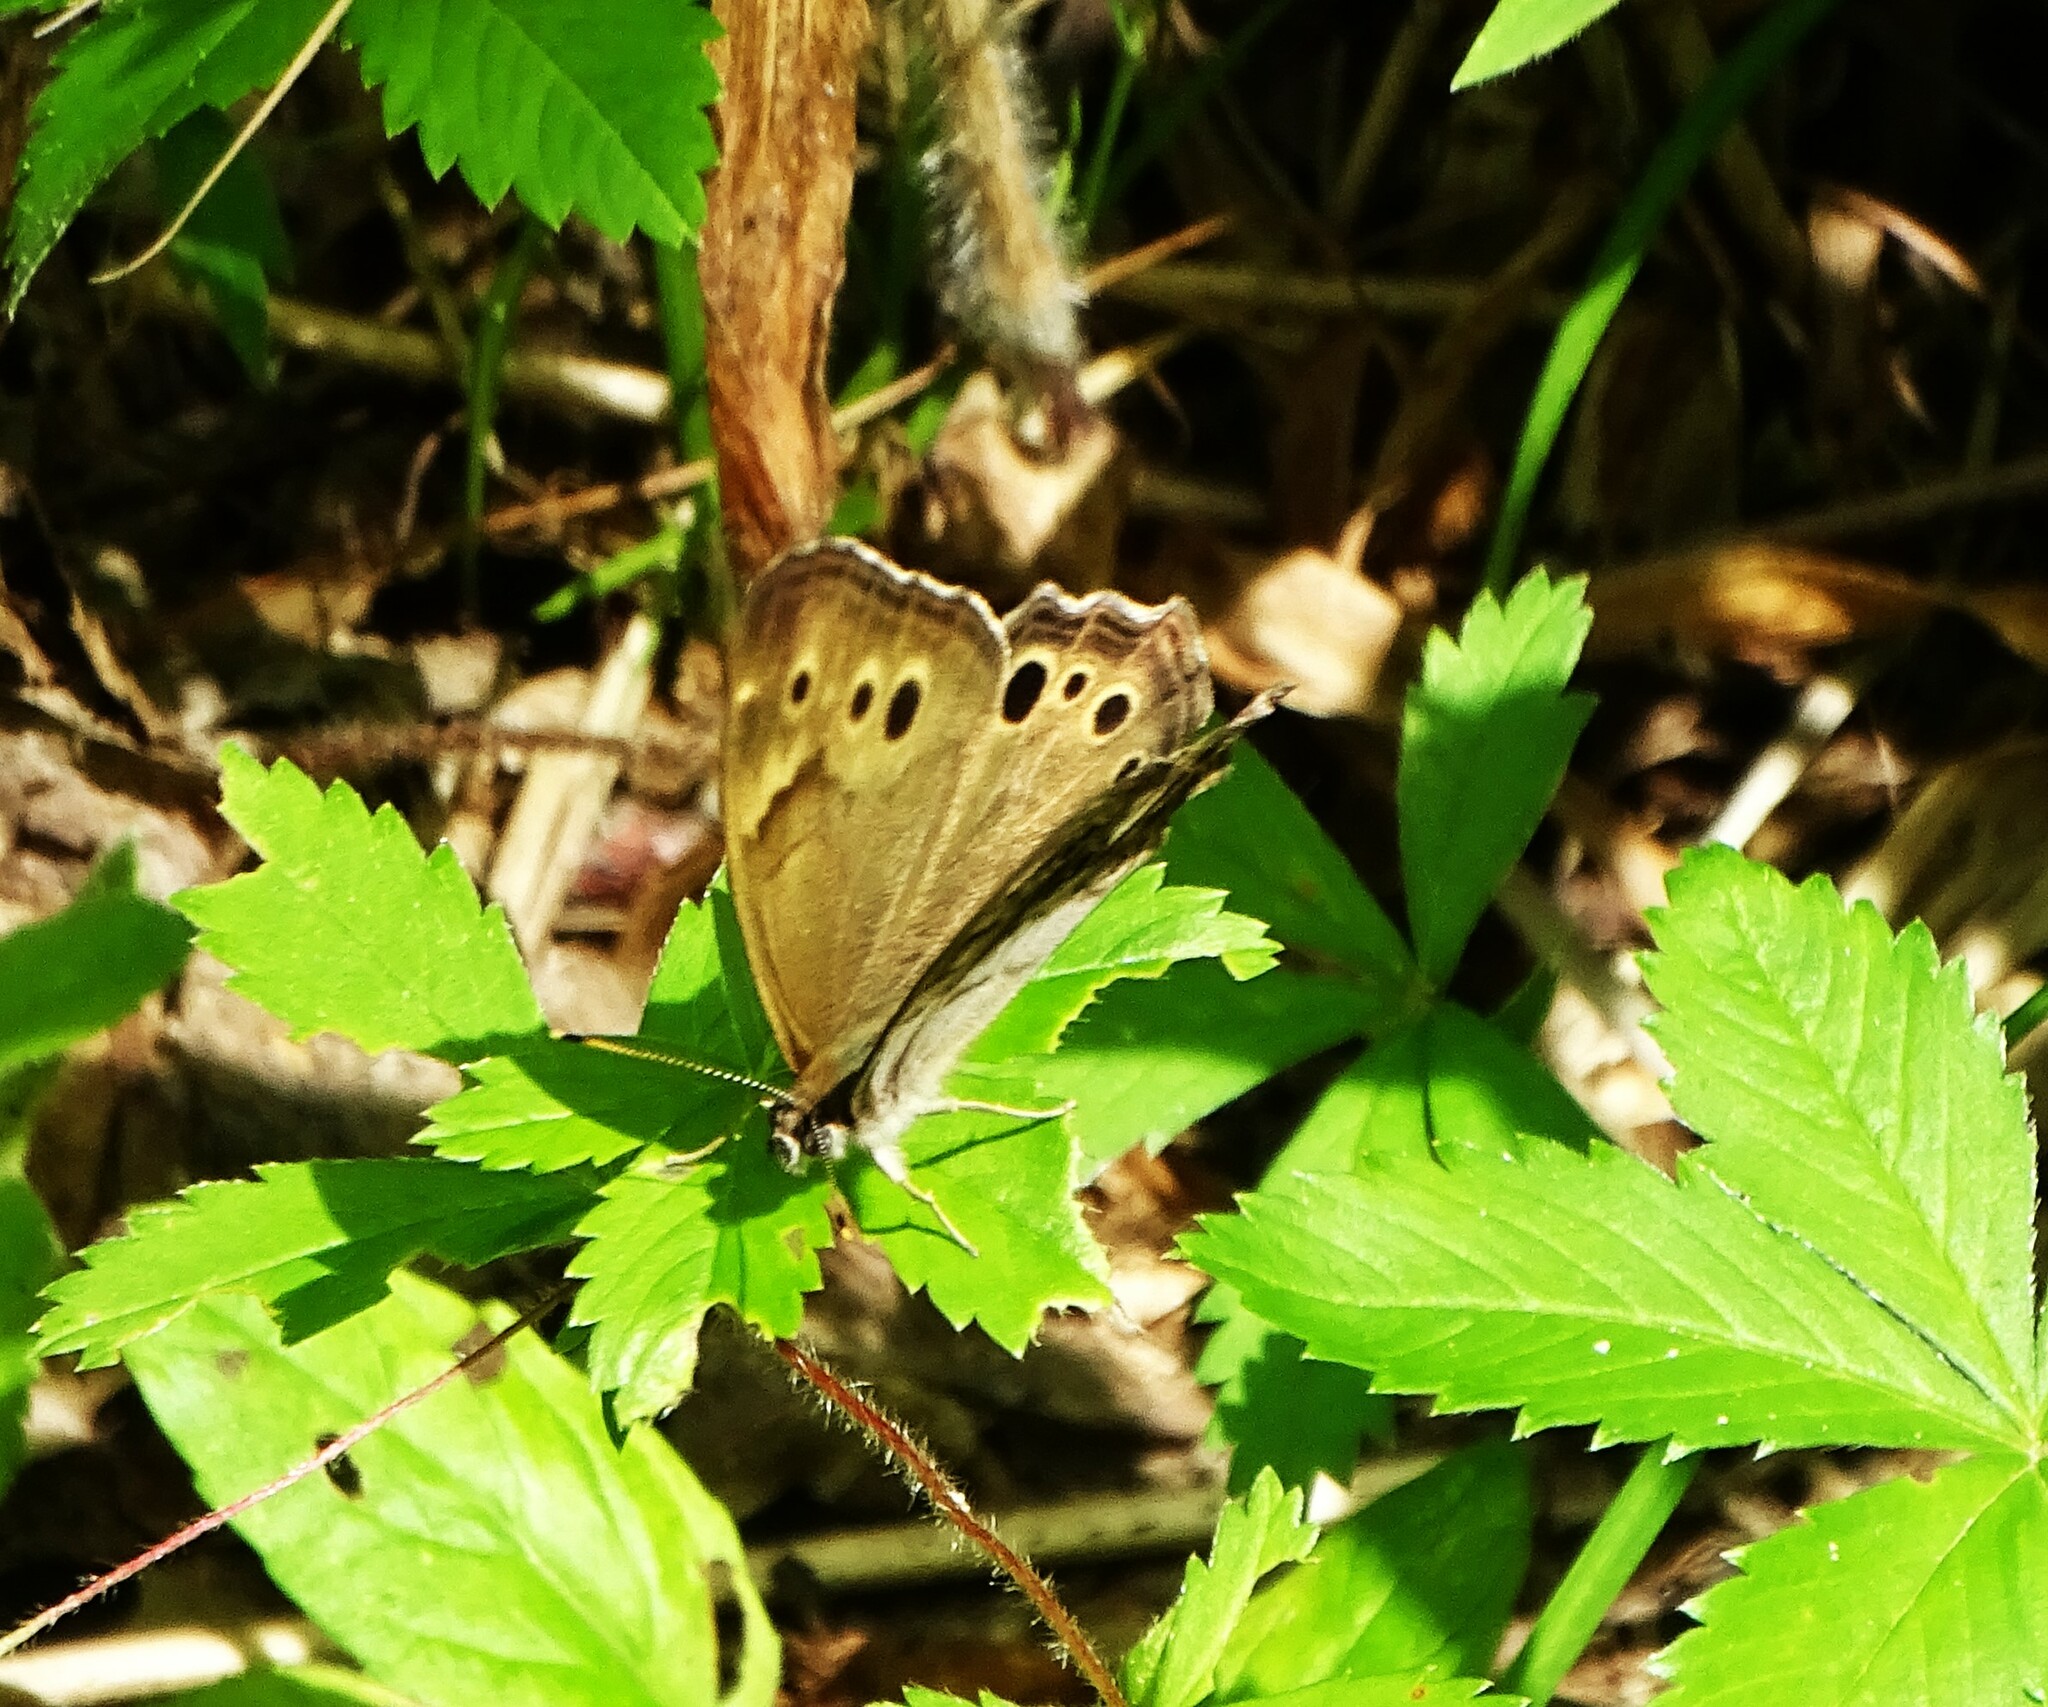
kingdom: Animalia
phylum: Arthropoda
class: Insecta
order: Lepidoptera
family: Nymphalidae
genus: Lethe
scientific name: Lethe anthedon
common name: Northern pearly-eye
